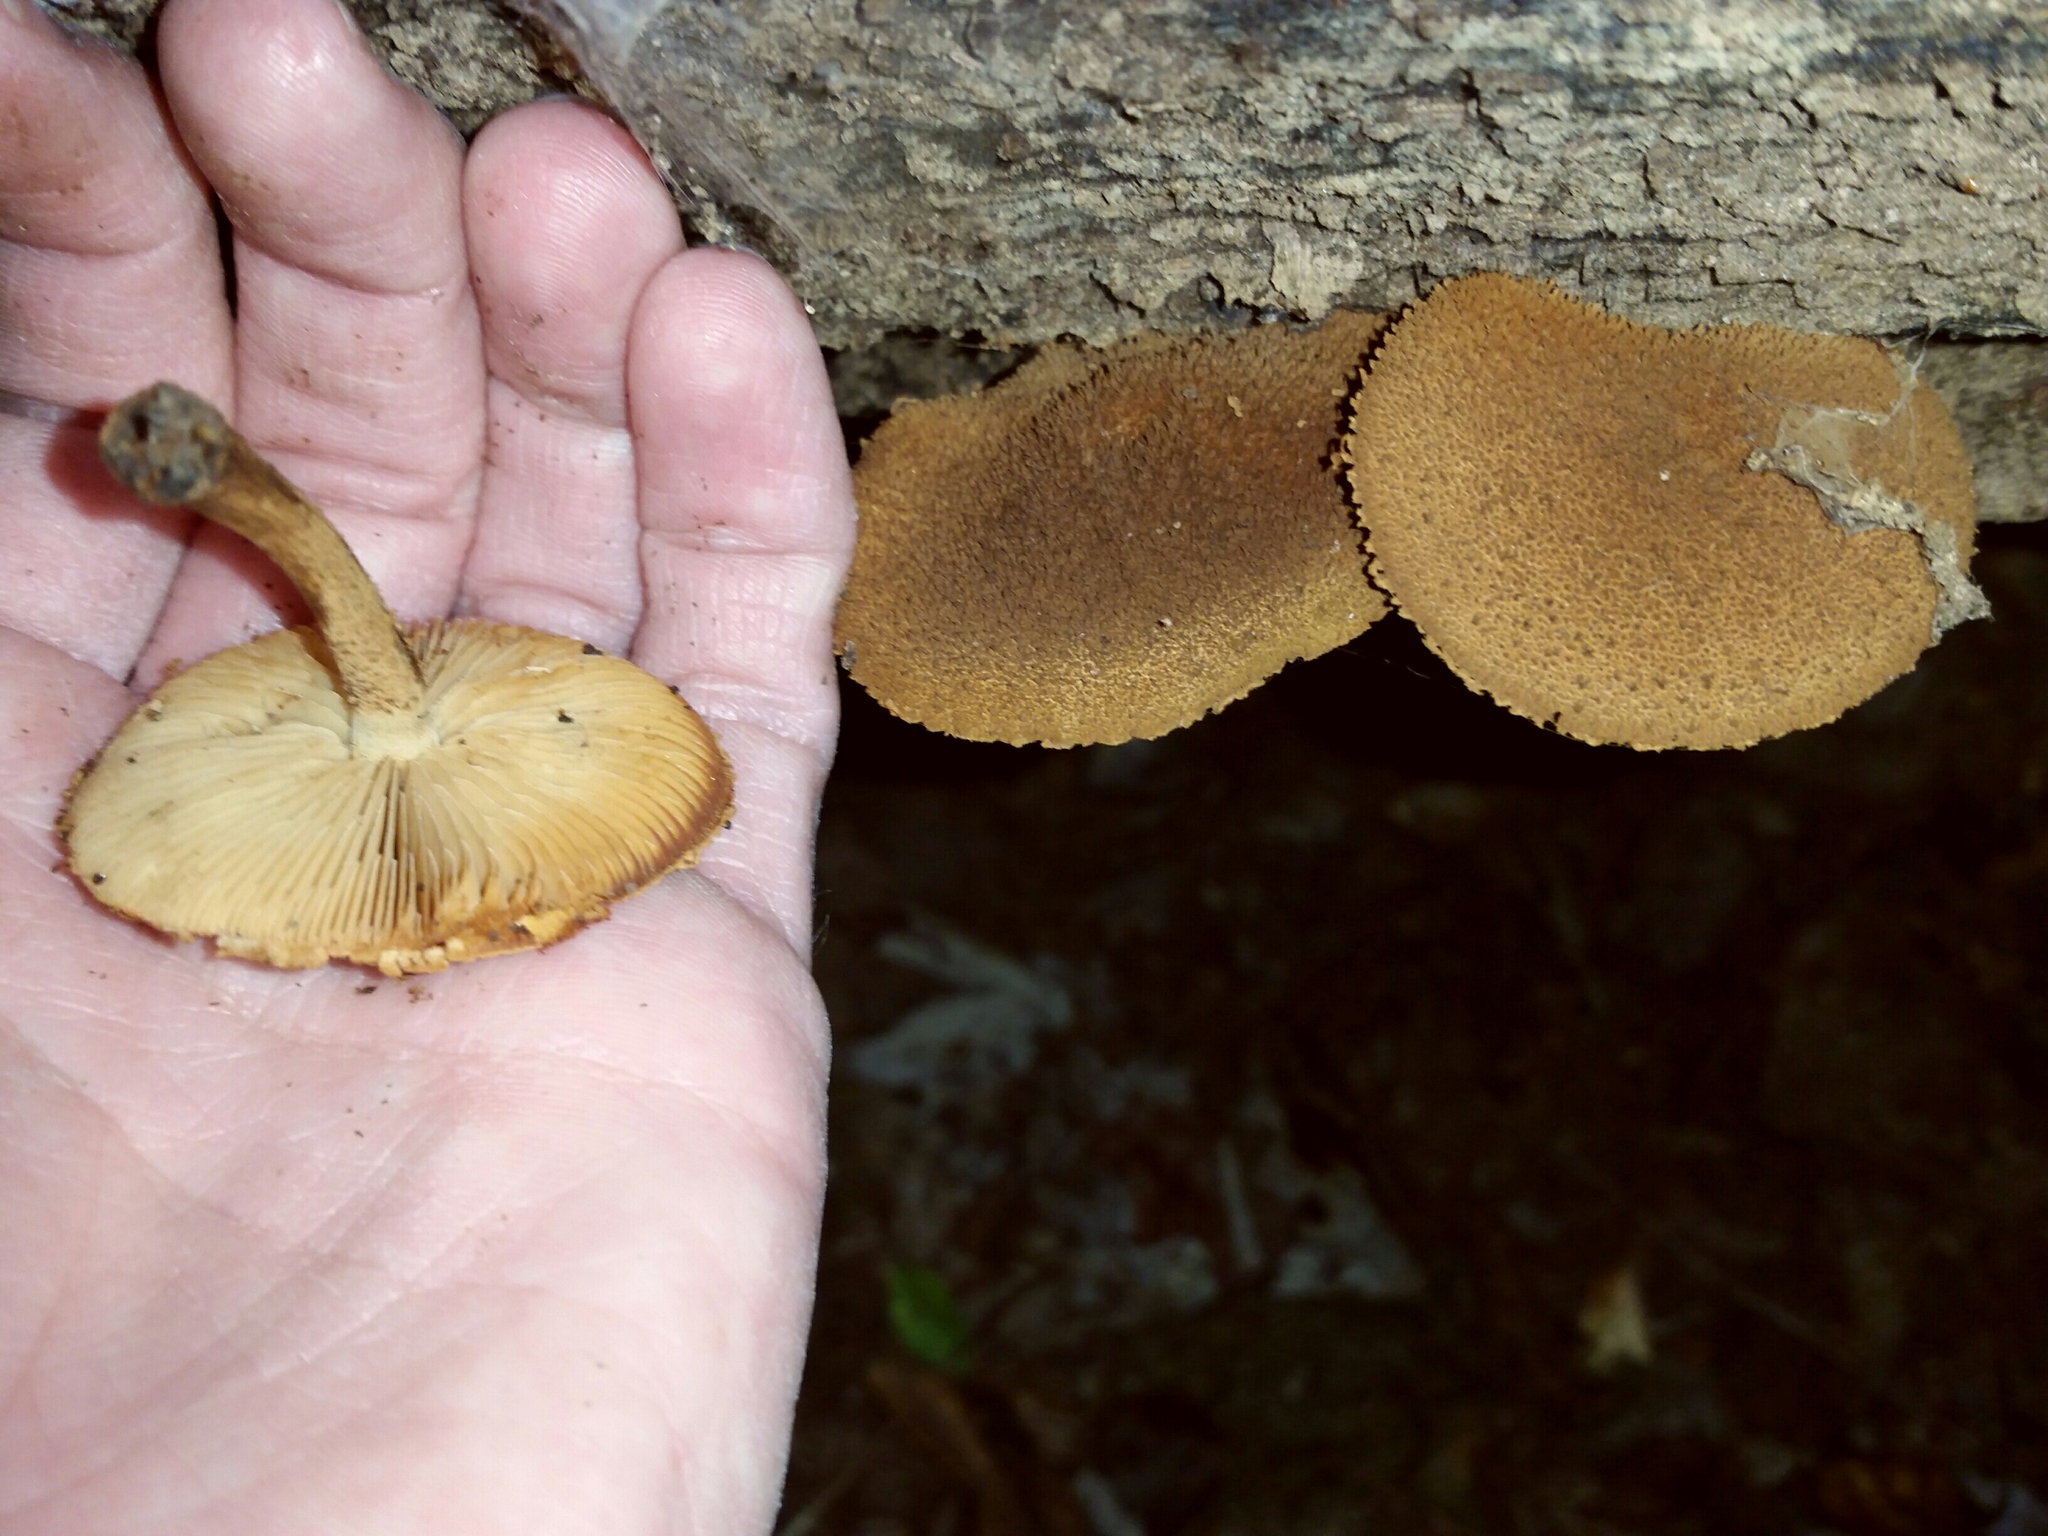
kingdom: Fungi
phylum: Basidiomycota
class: Agaricomycetes
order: Agaricales
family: Tubariaceae
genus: Flammulaster
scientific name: Flammulaster erinaceellus
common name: Powder-scale pholiota
